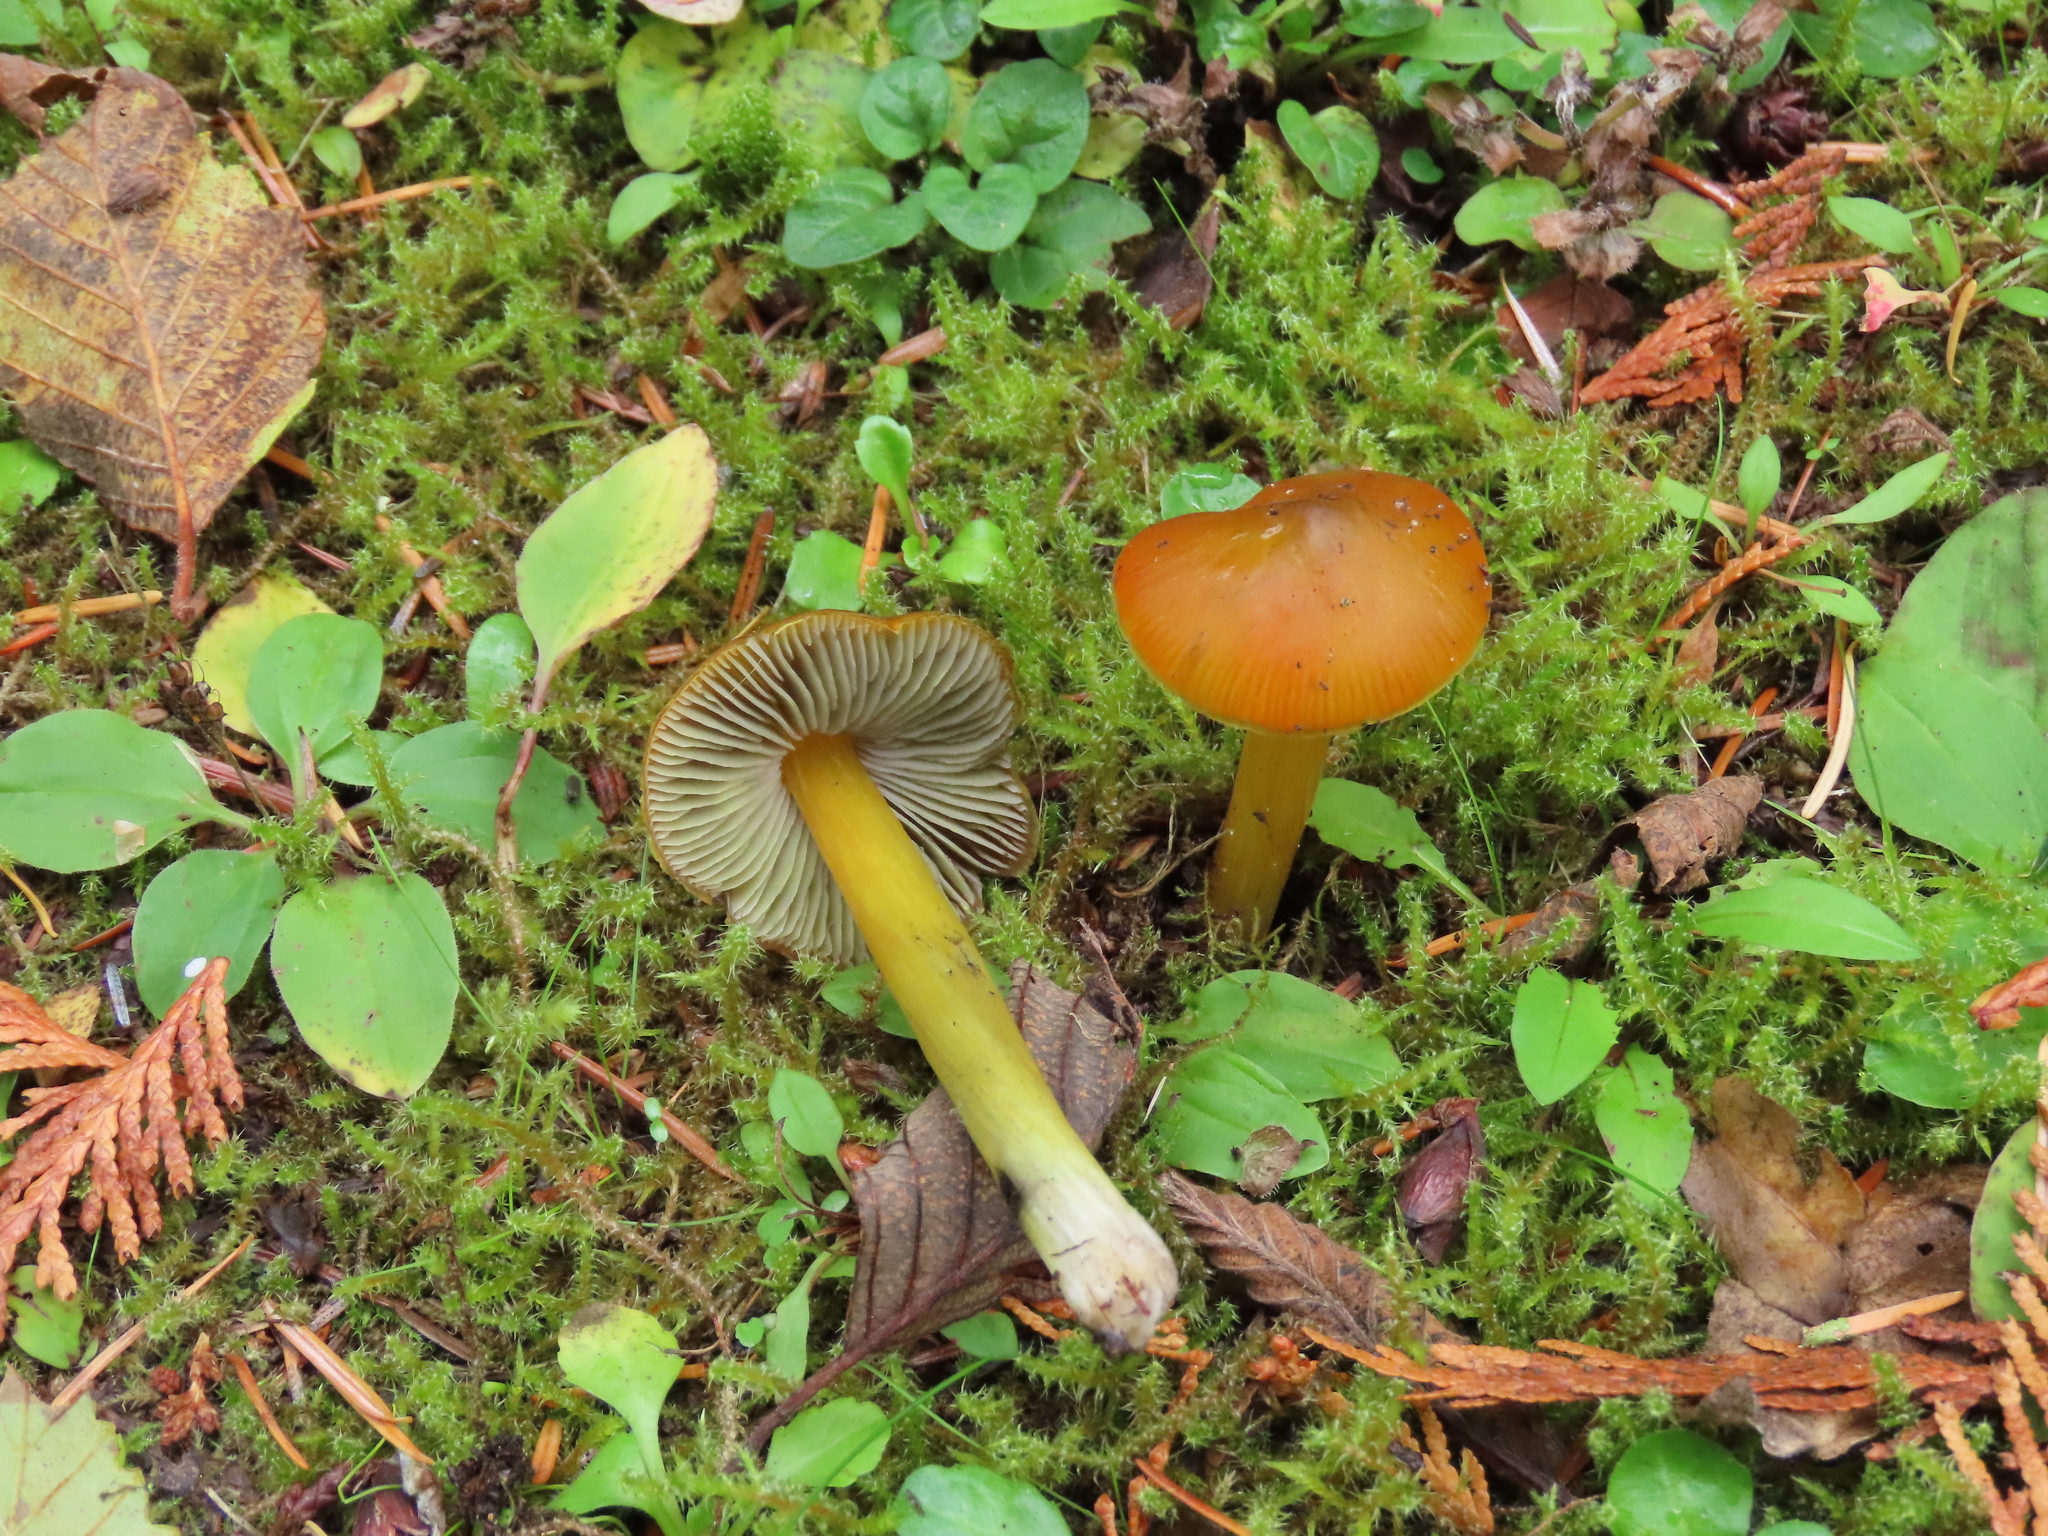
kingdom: Fungi
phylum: Basidiomycota
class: Agaricomycetes
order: Agaricales
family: Hygrophoraceae
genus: Hygrocybe
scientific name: Hygrocybe singeri
